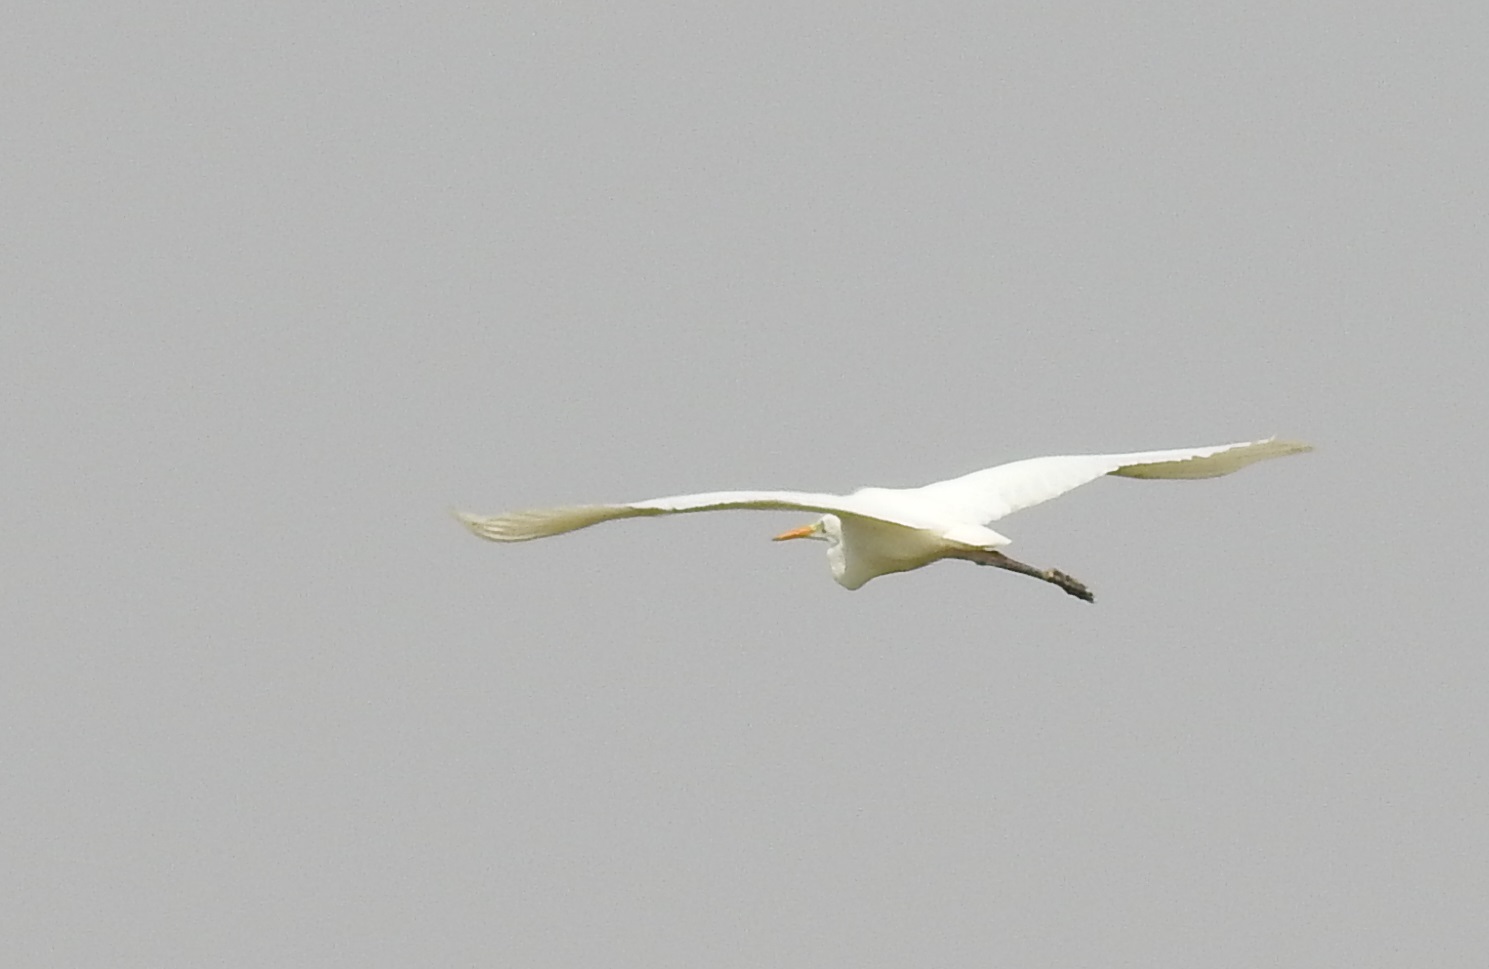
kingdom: Animalia
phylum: Chordata
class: Aves
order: Pelecaniformes
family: Ardeidae
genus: Ardea
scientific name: Ardea alba
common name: Great egret
